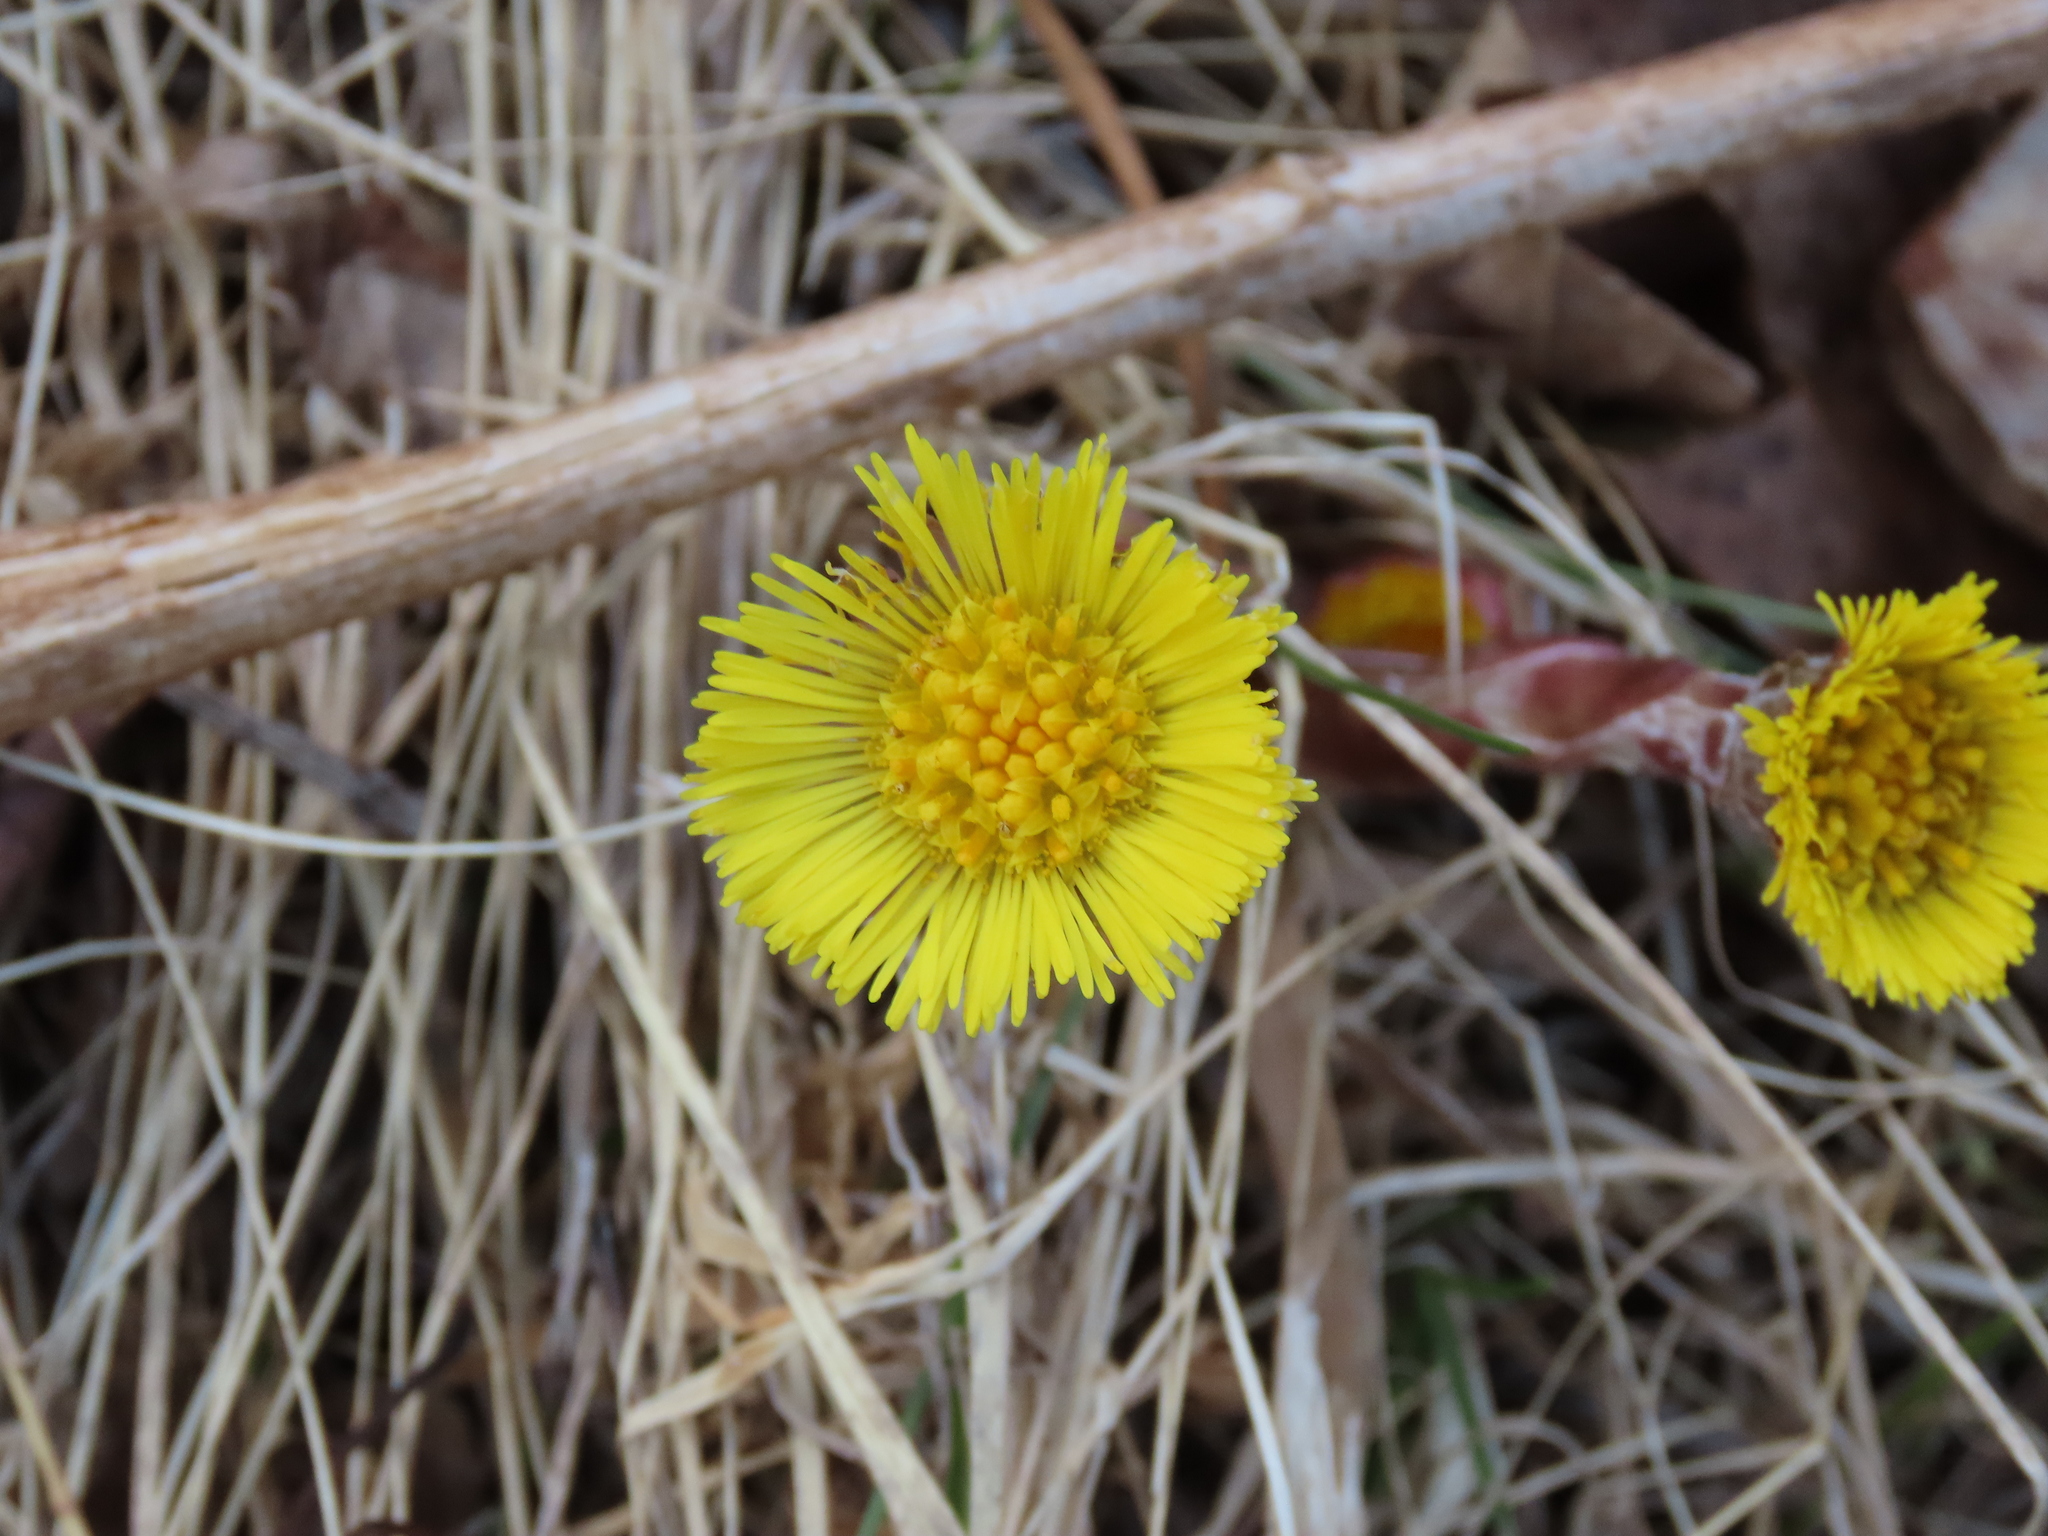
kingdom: Plantae
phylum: Tracheophyta
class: Magnoliopsida
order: Asterales
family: Asteraceae
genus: Tussilago
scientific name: Tussilago farfara
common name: Coltsfoot
